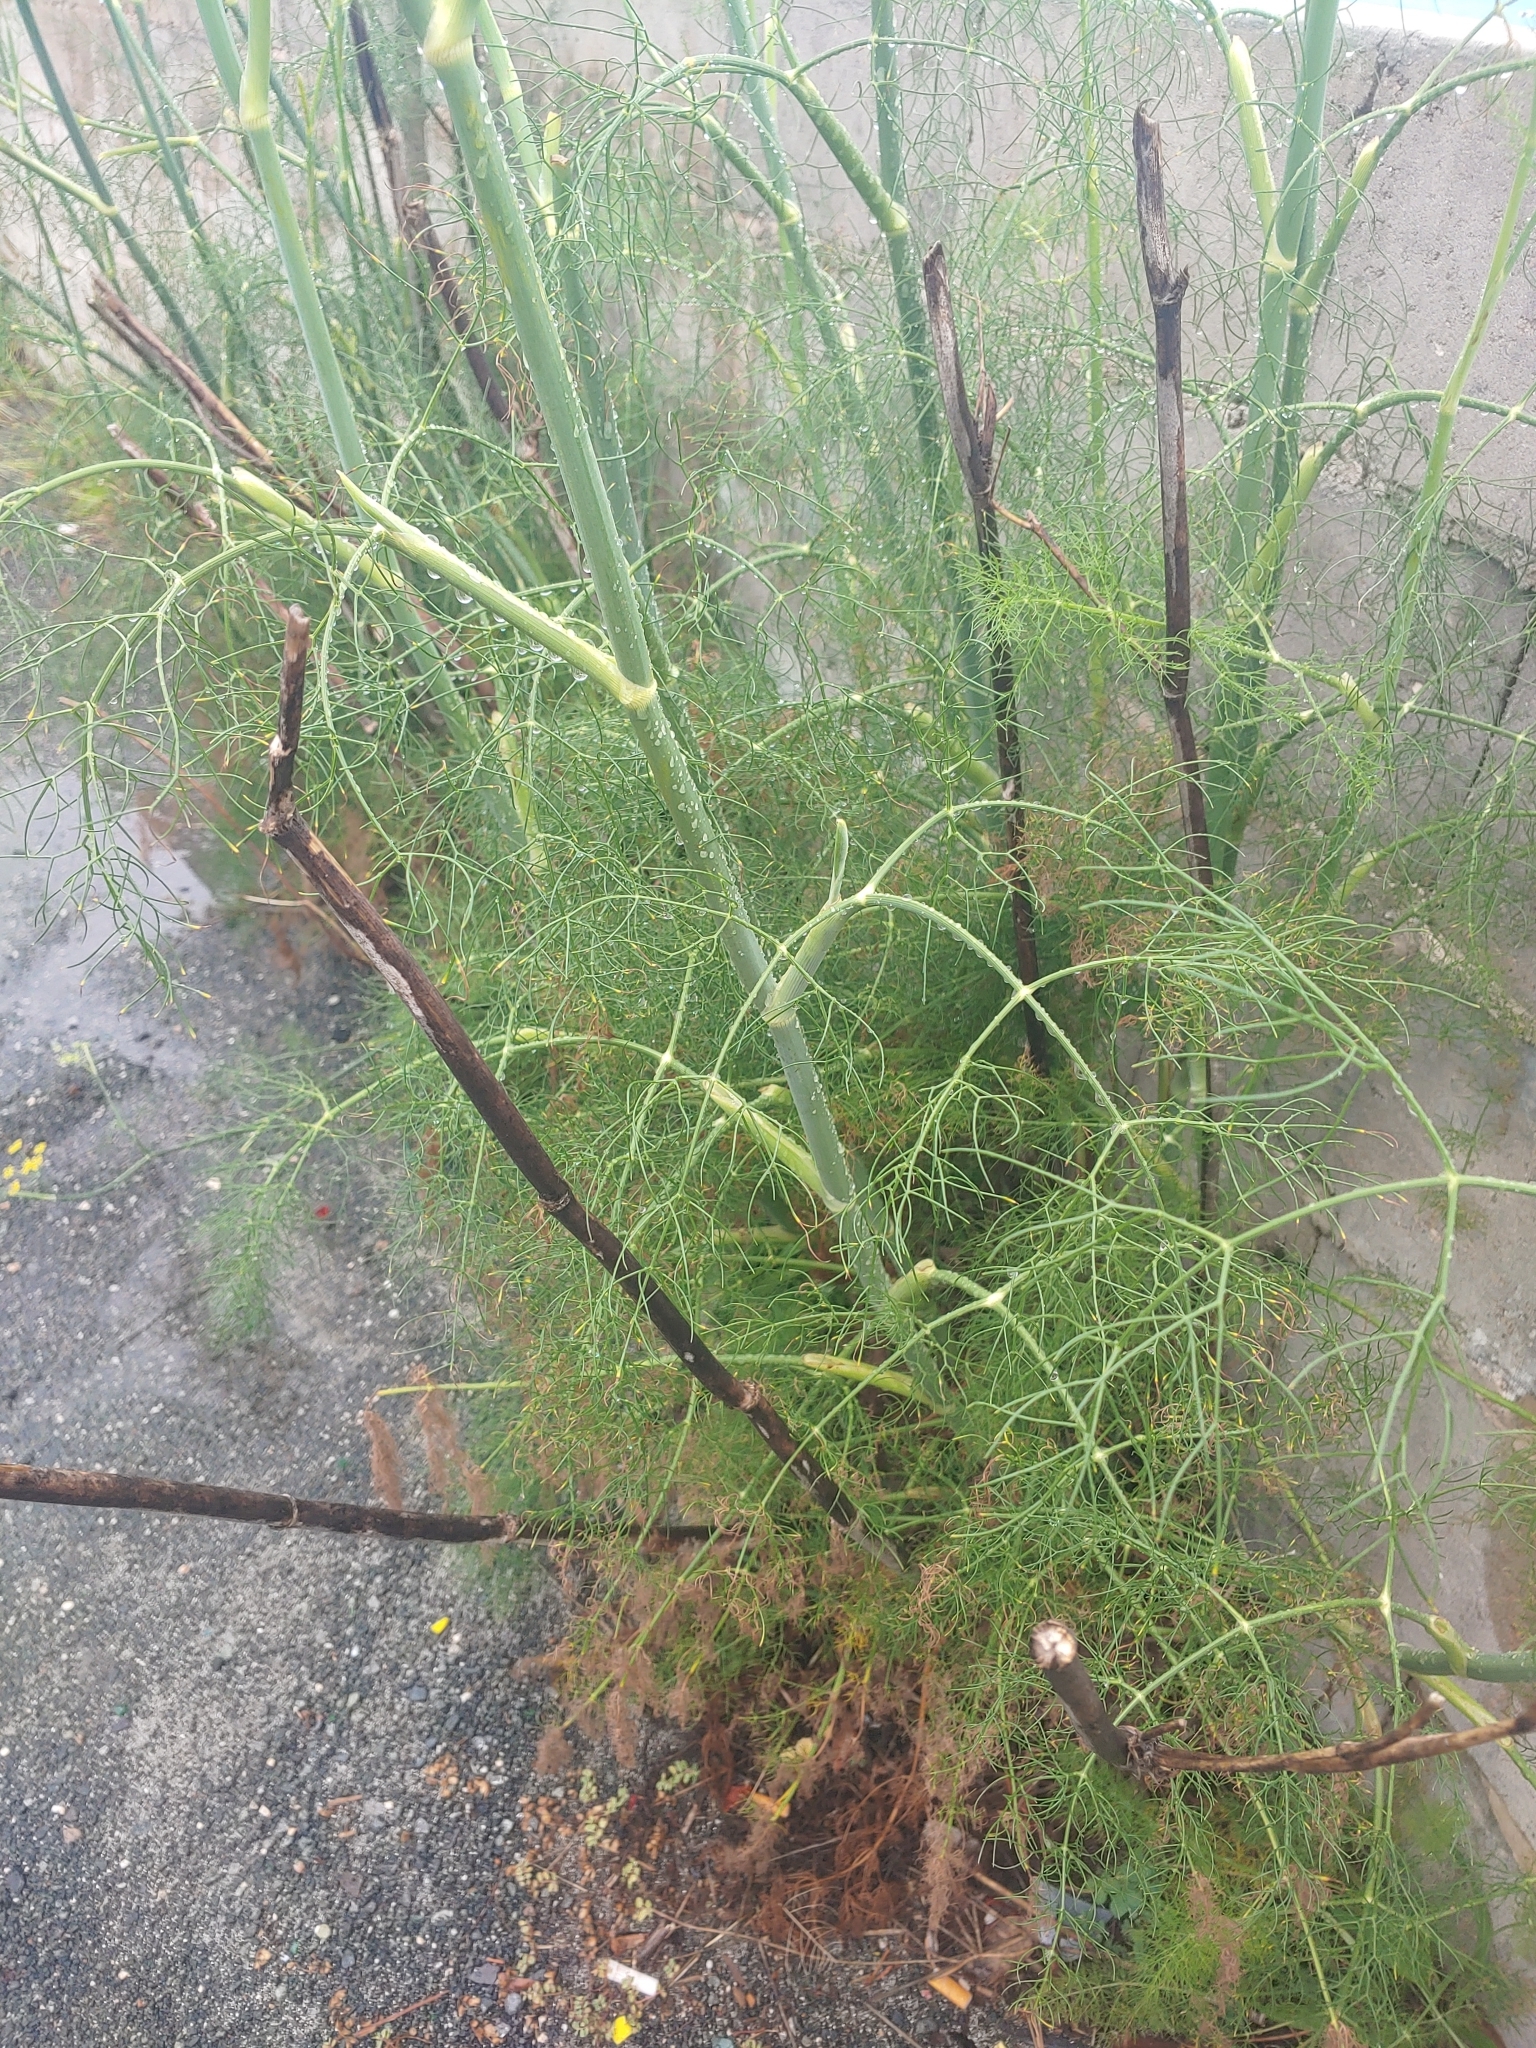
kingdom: Plantae
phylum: Tracheophyta
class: Magnoliopsida
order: Apiales
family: Apiaceae
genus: Foeniculum
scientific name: Foeniculum vulgare
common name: Fennel
